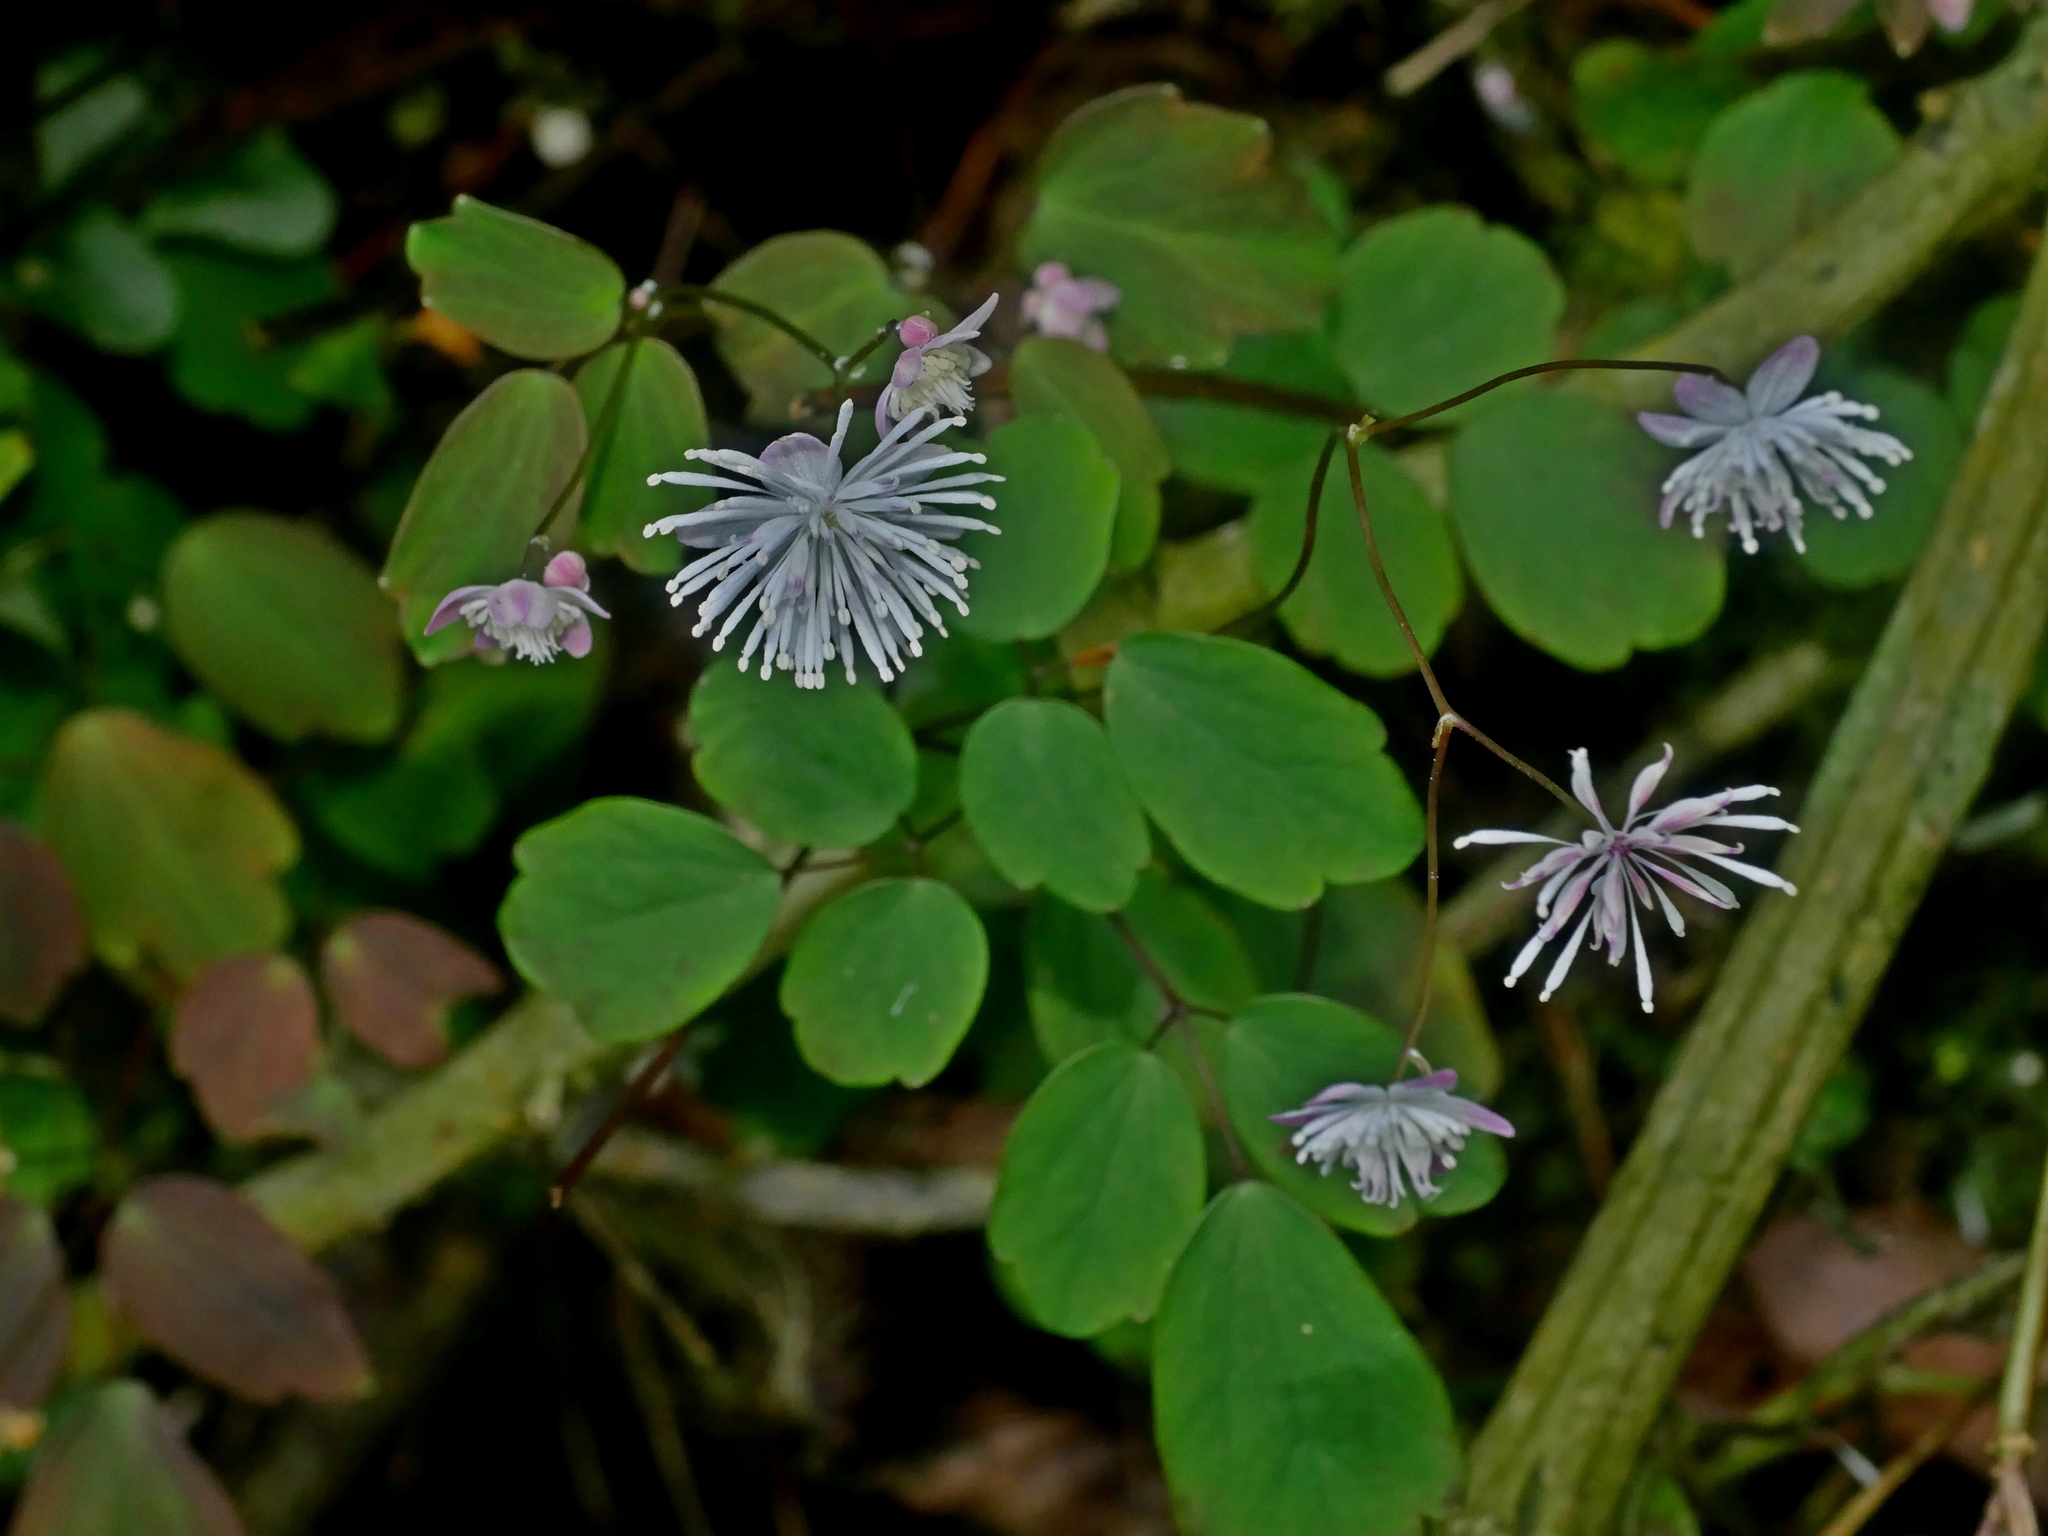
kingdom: Plantae
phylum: Tracheophyta
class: Magnoliopsida
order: Ranunculales
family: Ranunculaceae
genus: Thalictrum
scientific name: Thalictrum urbaini
